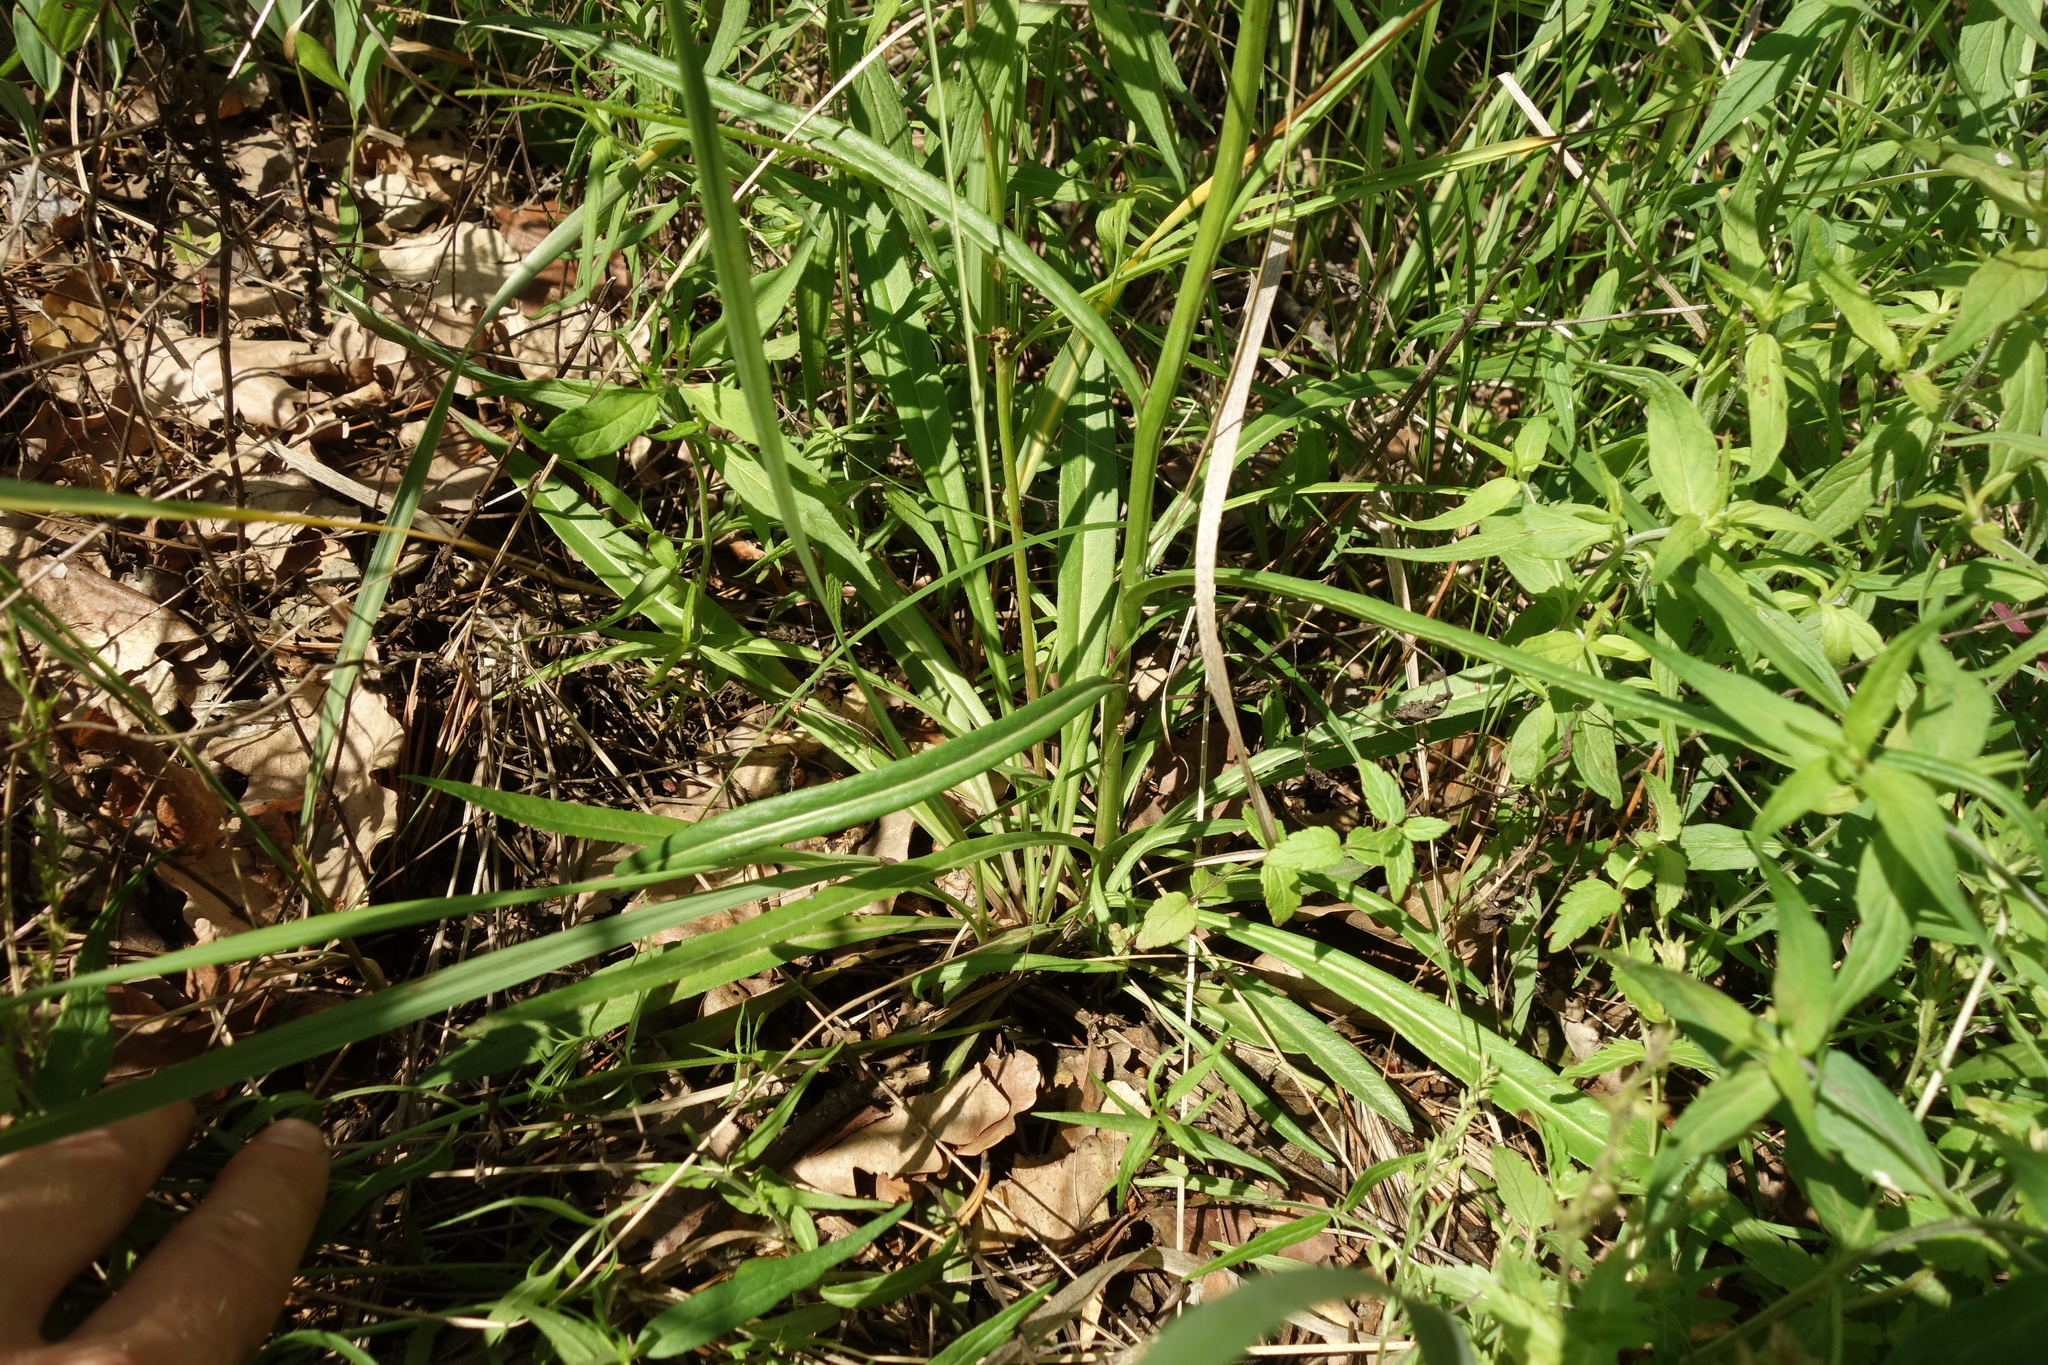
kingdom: Plantae
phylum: Tracheophyta
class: Magnoliopsida
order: Asterales
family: Campanulaceae
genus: Campanula
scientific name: Campanula persicifolia
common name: Peach-leaved bellflower
